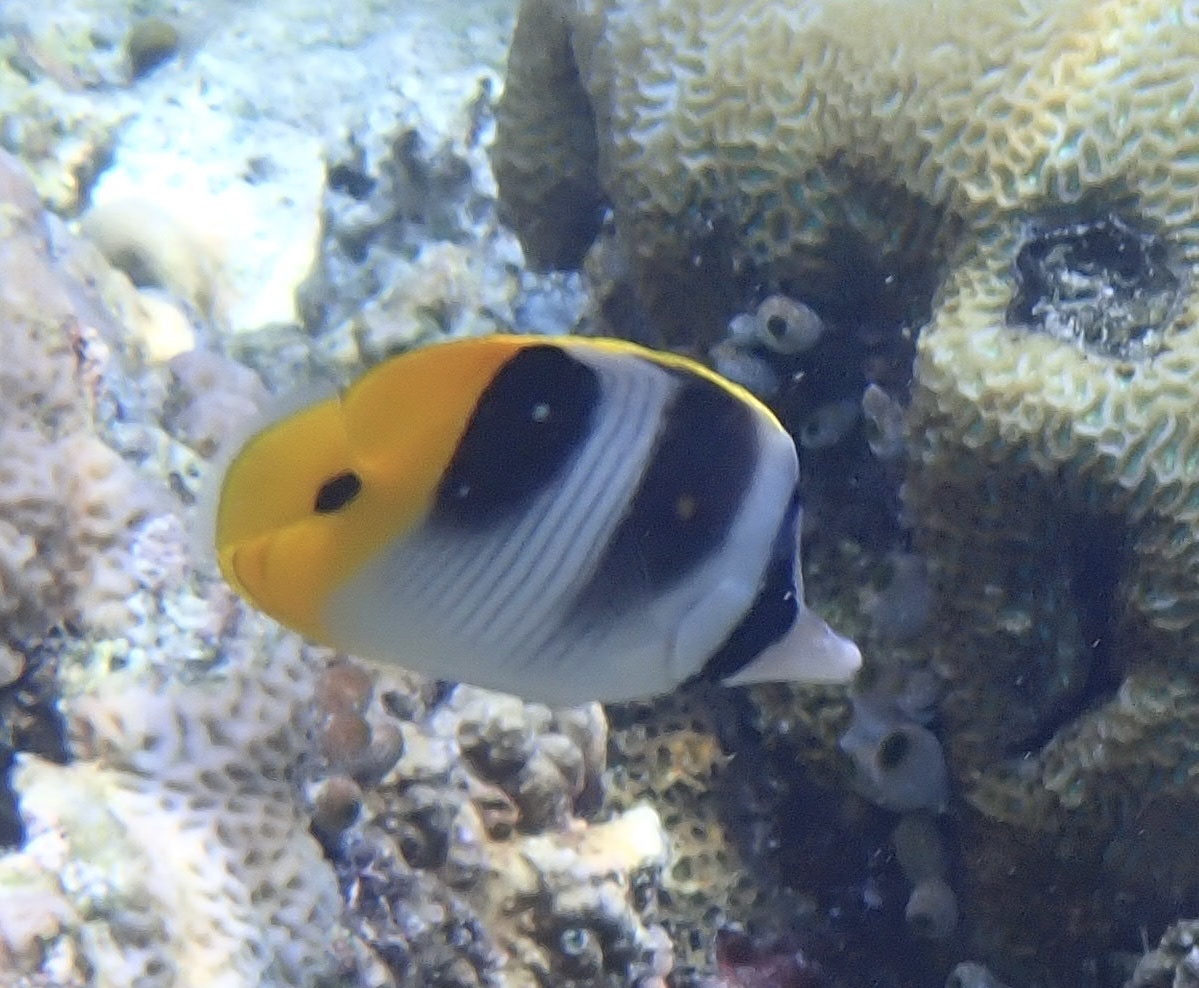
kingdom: Animalia
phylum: Chordata
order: Perciformes
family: Chaetodontidae
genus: Chaetodon
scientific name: Chaetodon ulietensis
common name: Pacific double-saddle butterflyfish
